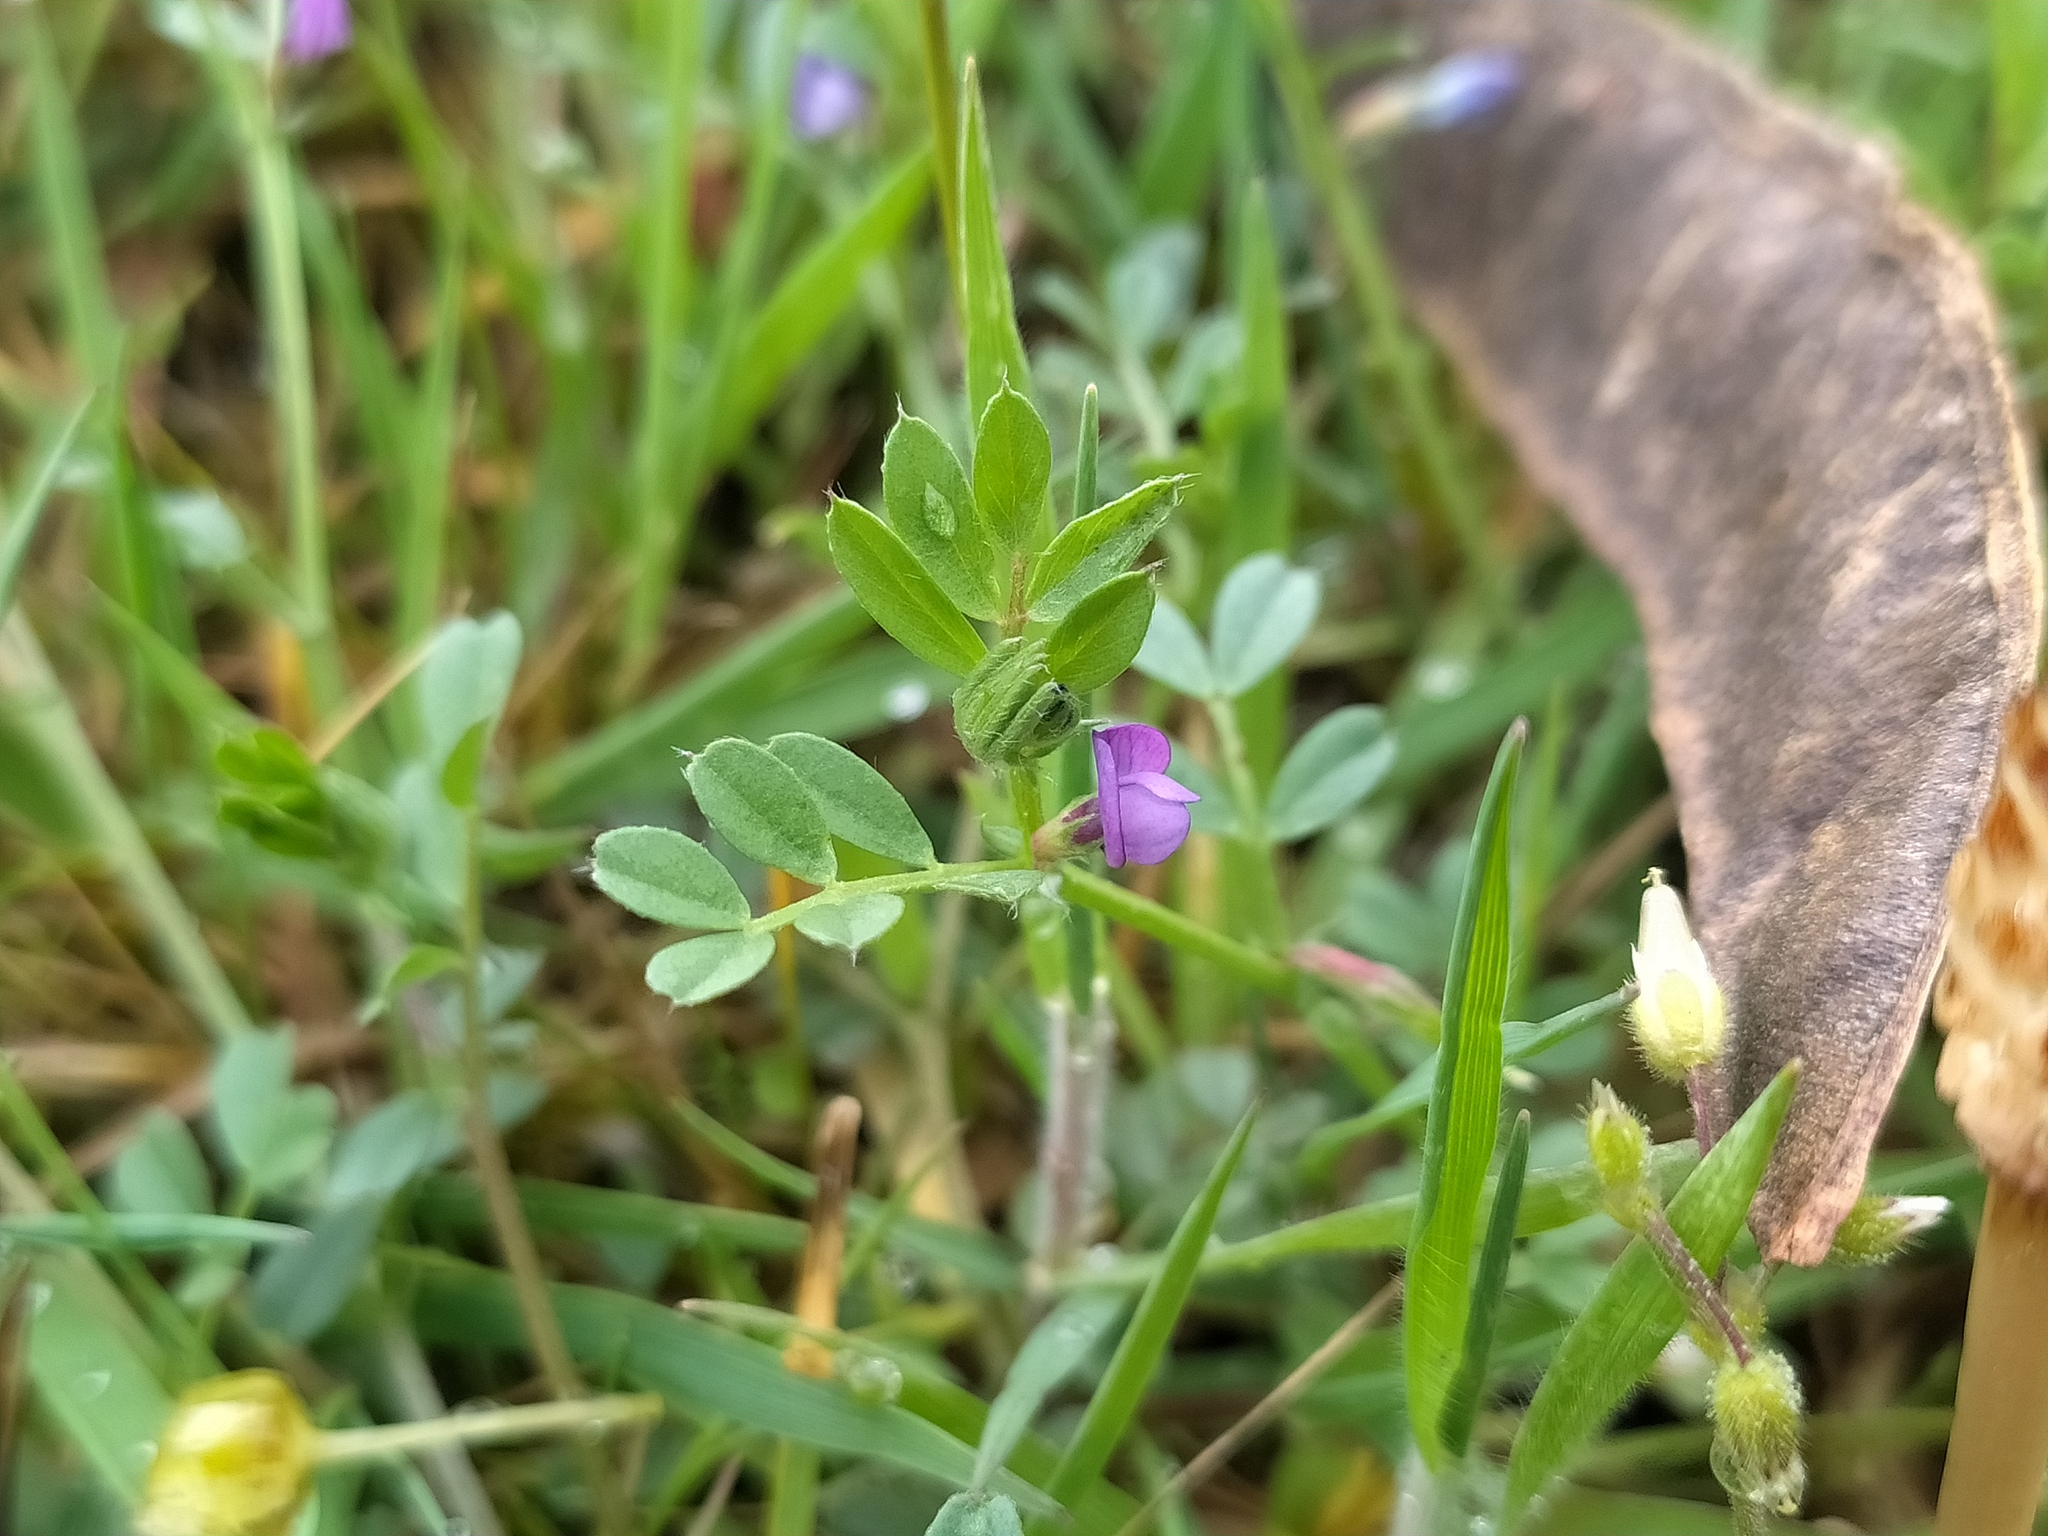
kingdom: Plantae
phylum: Tracheophyta
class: Magnoliopsida
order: Fabales
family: Fabaceae
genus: Vicia
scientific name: Vicia lathyroides
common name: Spring vetch
